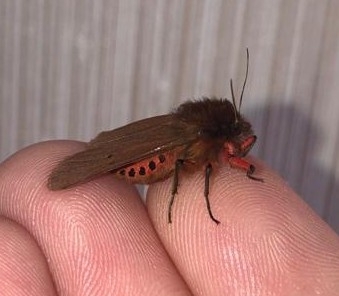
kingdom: Animalia
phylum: Arthropoda
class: Insecta
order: Lepidoptera
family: Erebidae
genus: Phragmatobia
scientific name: Phragmatobia fuliginosa
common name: Ruby tiger
